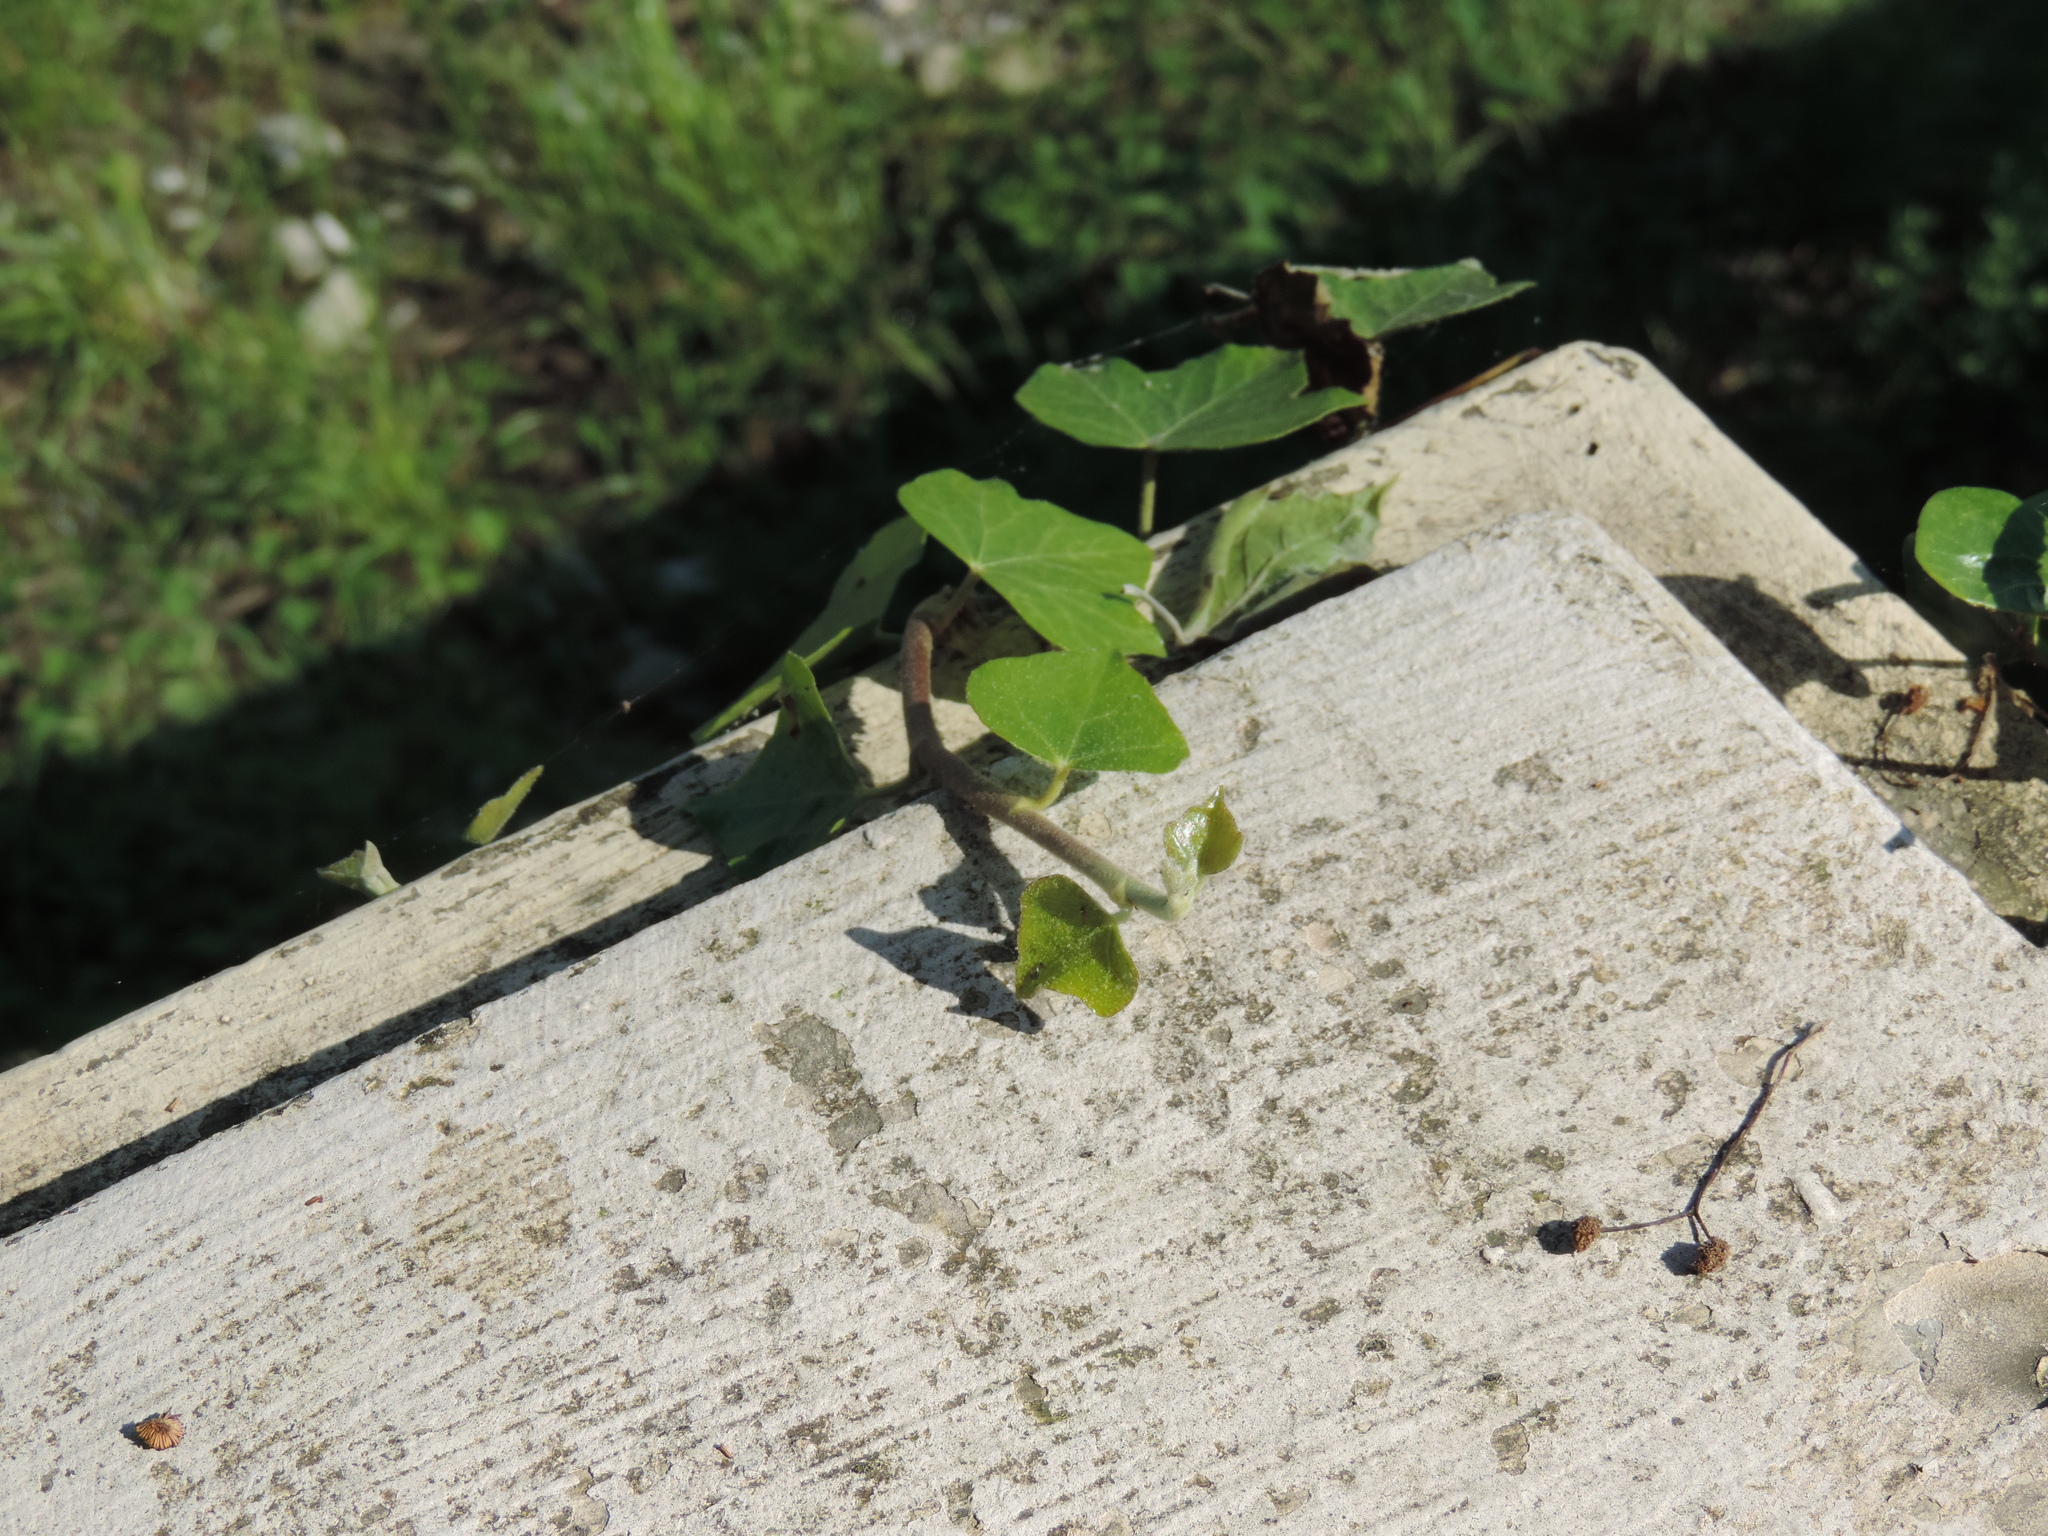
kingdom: Plantae
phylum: Tracheophyta
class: Magnoliopsida
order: Apiales
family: Araliaceae
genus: Hedera
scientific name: Hedera helix
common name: Ivy
